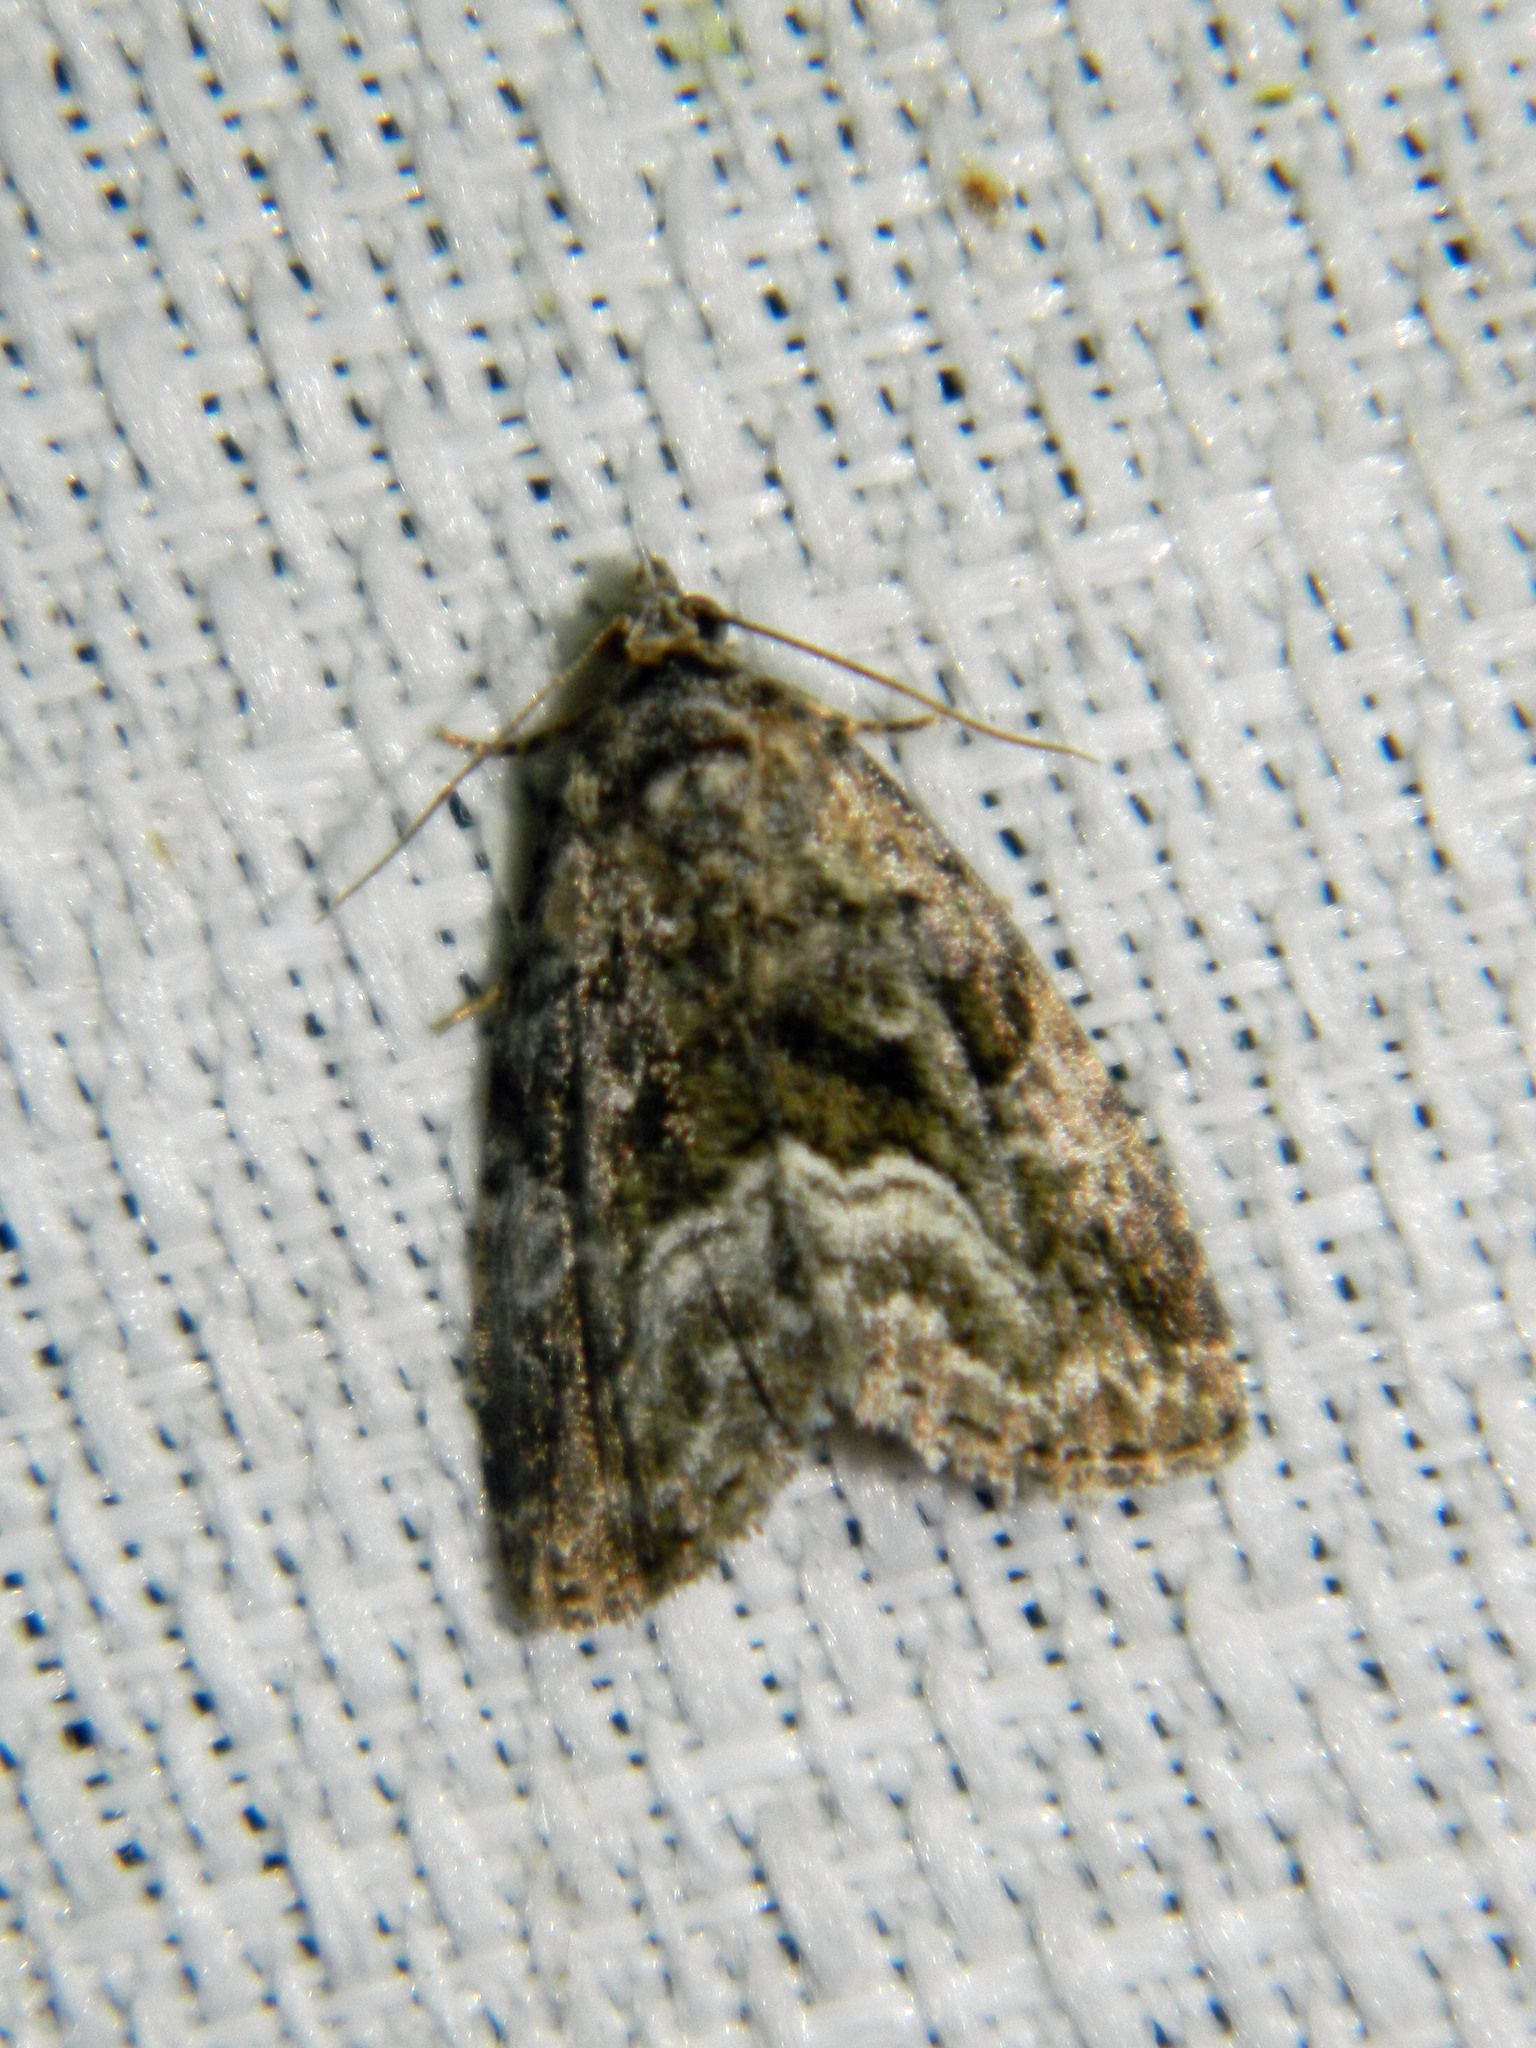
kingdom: Animalia
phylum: Arthropoda
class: Insecta
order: Lepidoptera
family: Noctuidae
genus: Protodeltote
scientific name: Protodeltote muscosula
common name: Large mossy glyph
